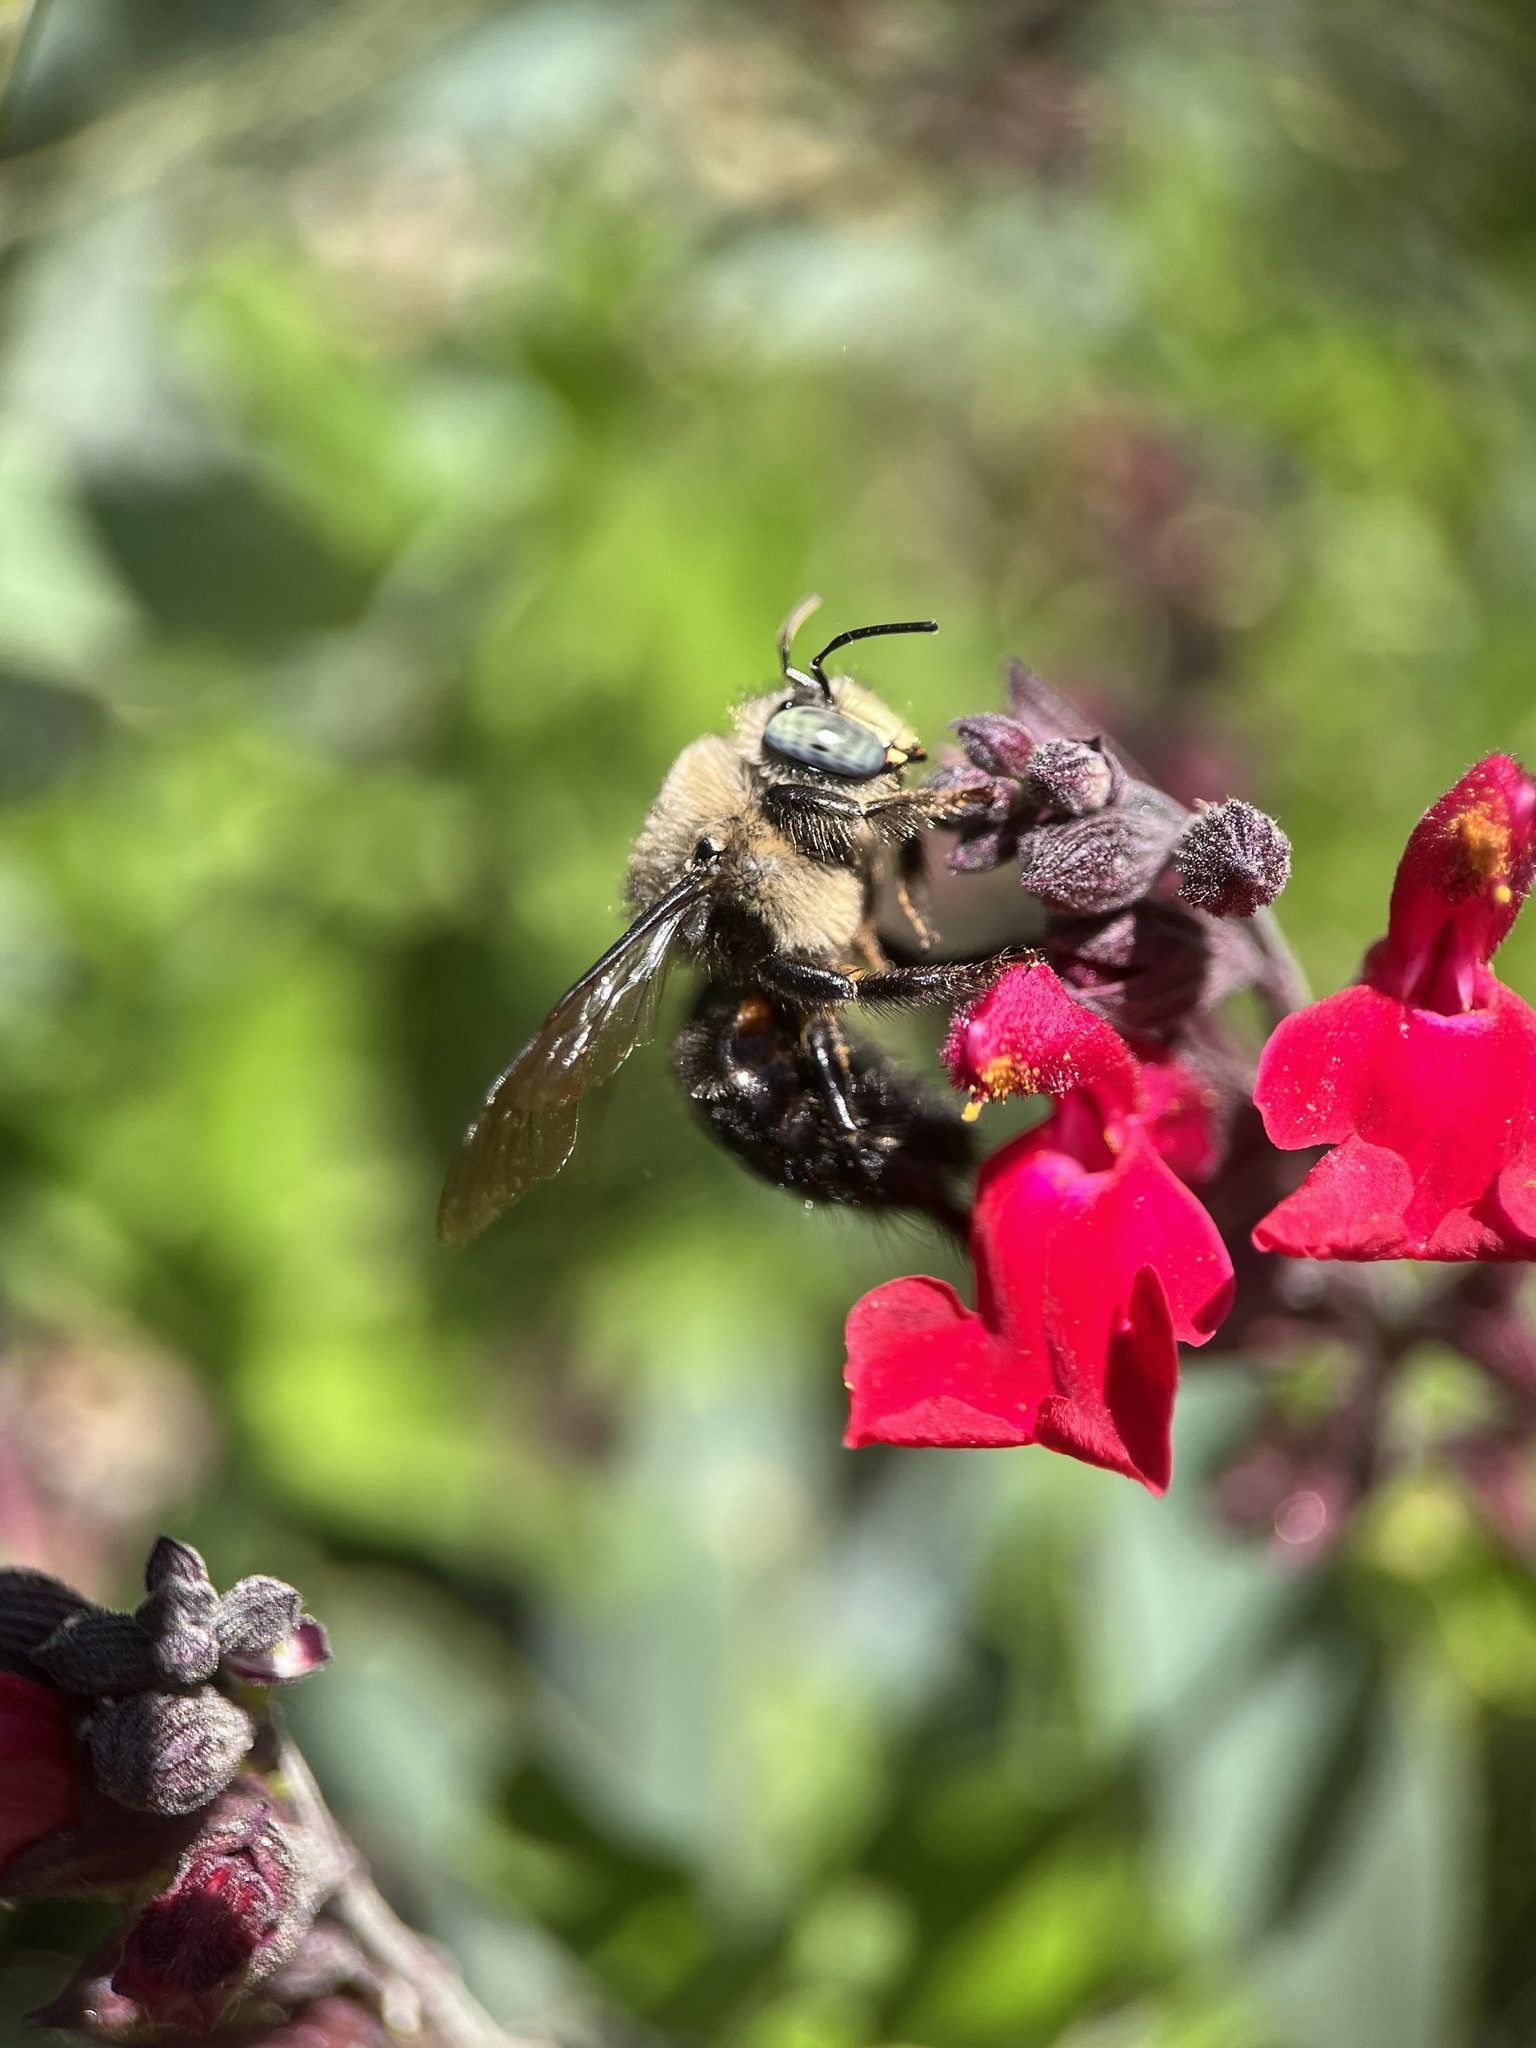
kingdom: Animalia
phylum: Arthropoda
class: Insecta
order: Hymenoptera
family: Apidae
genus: Xylocopa
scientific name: Xylocopa tabaniformis
